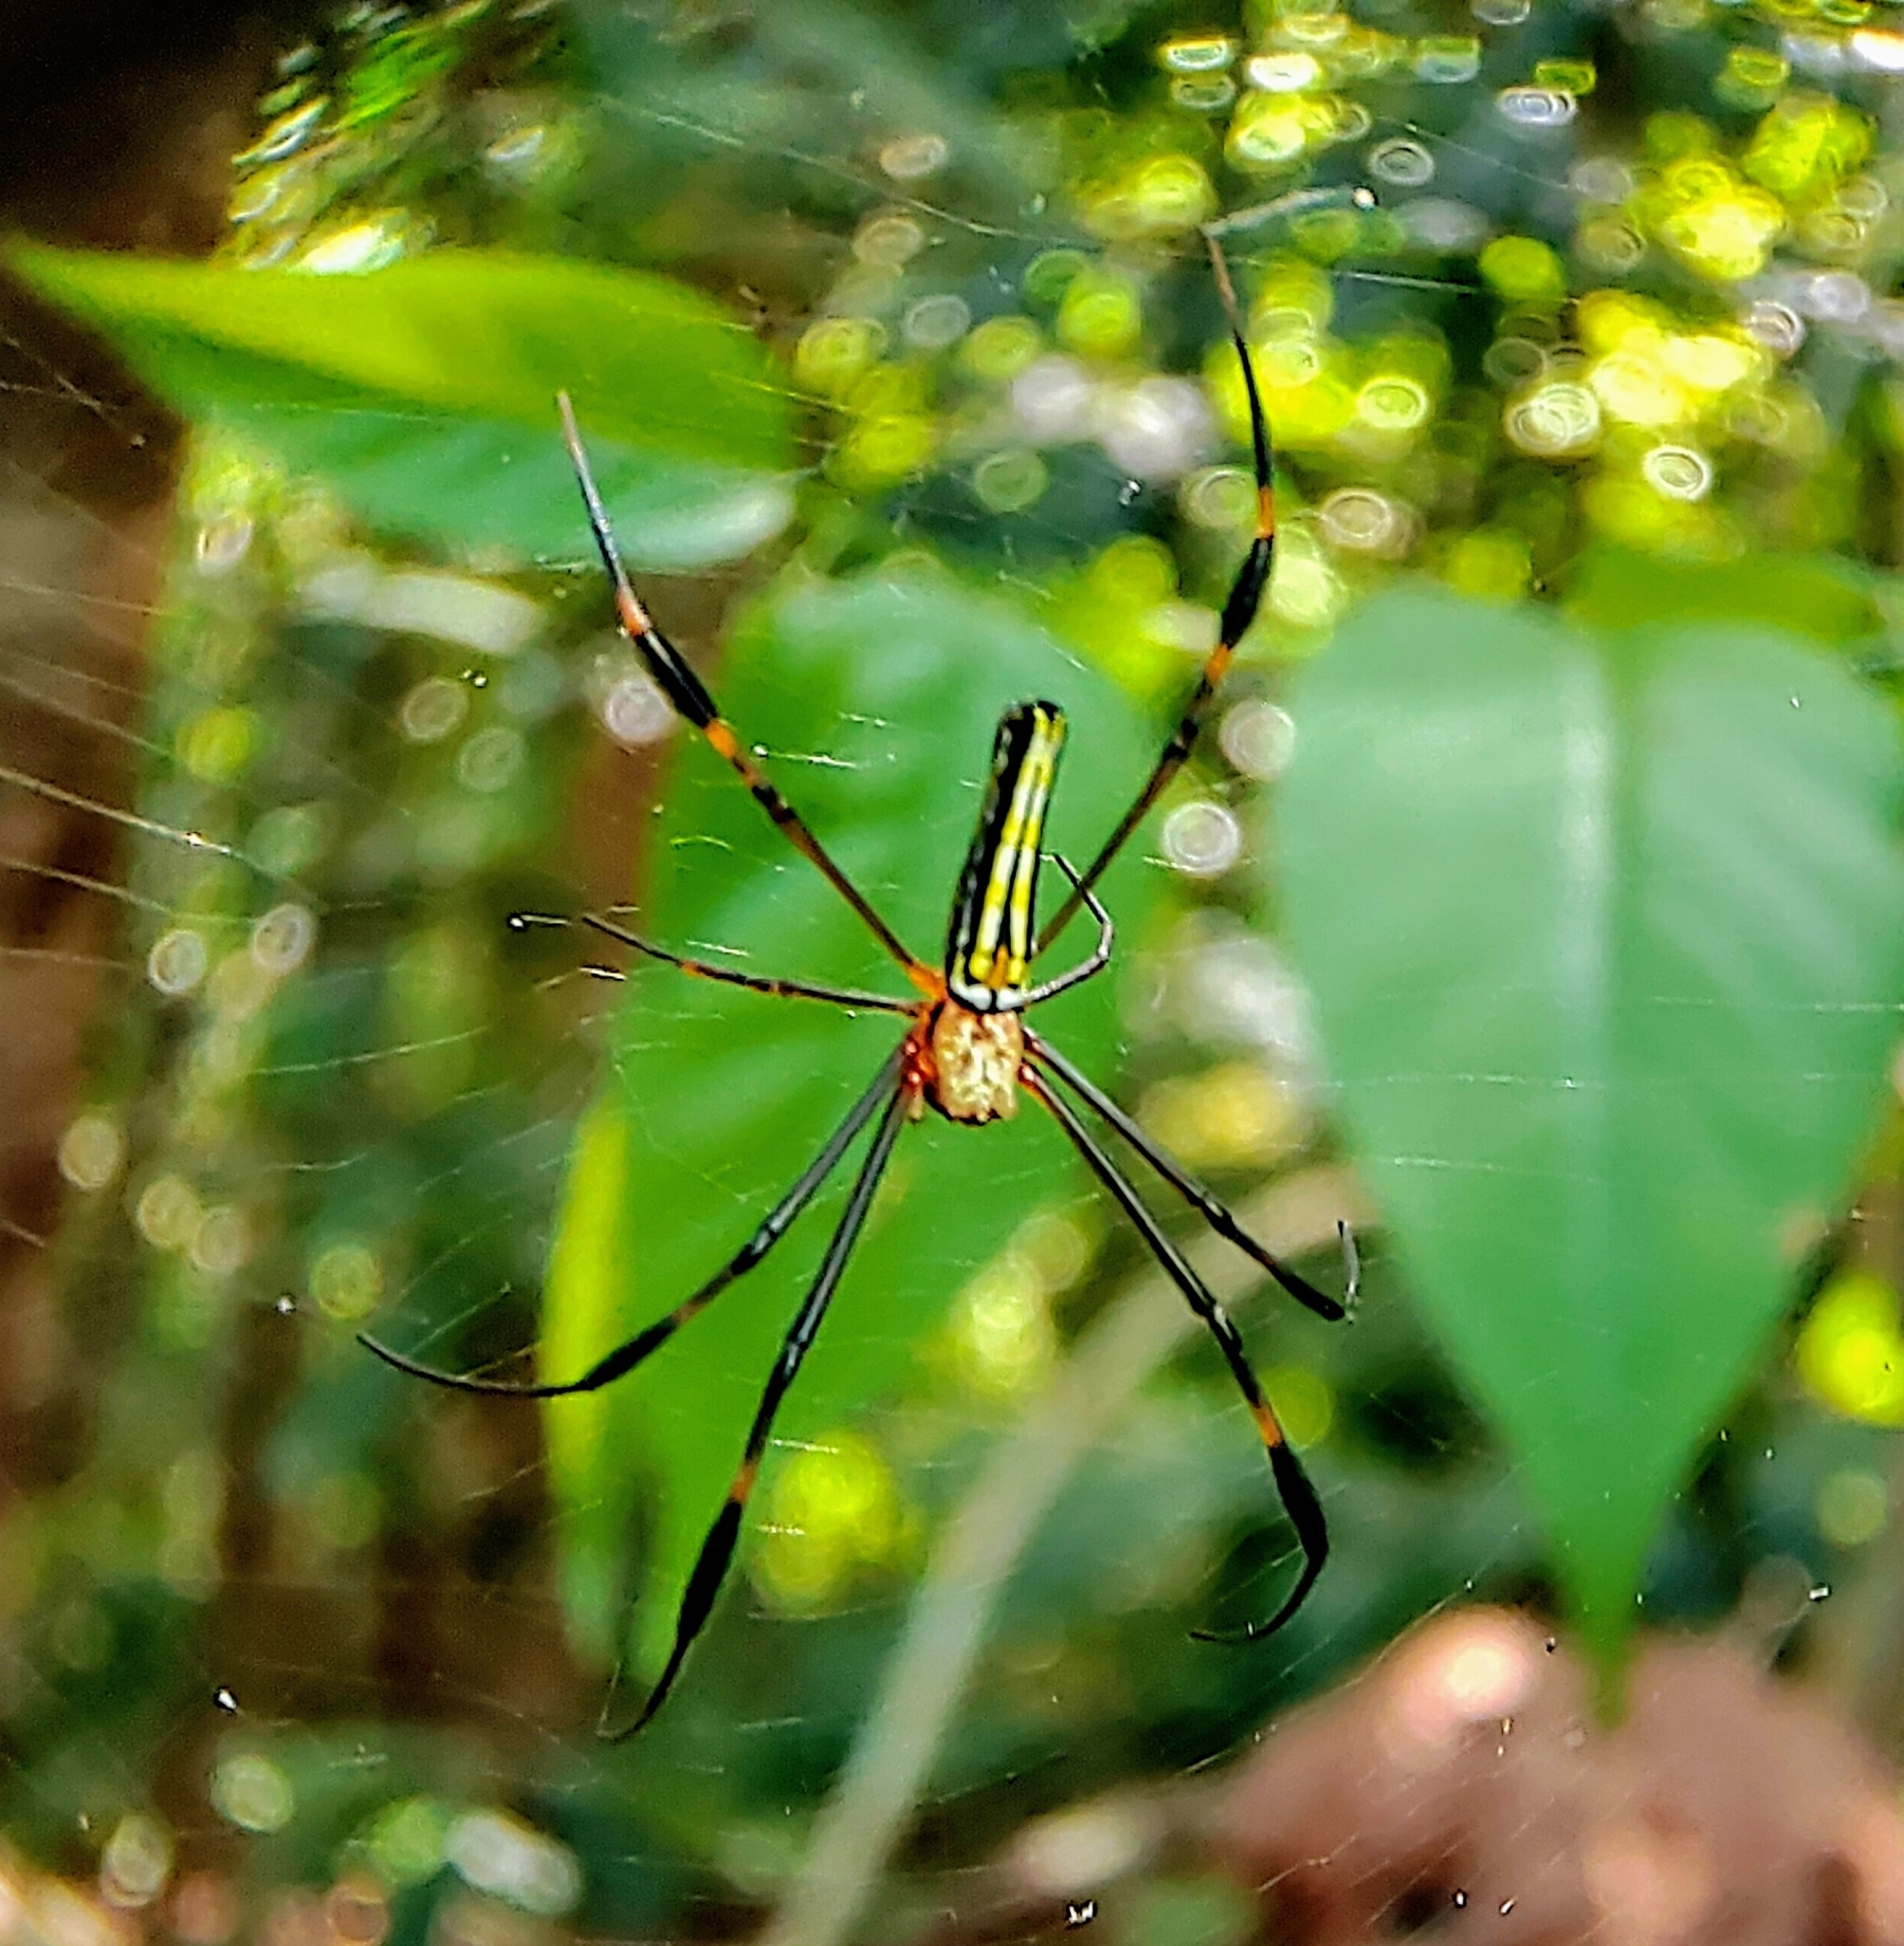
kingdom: Animalia
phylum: Arthropoda
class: Arachnida
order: Araneae
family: Araneidae
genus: Nephila
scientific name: Nephila pilipes
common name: Giant golden orb weaver
